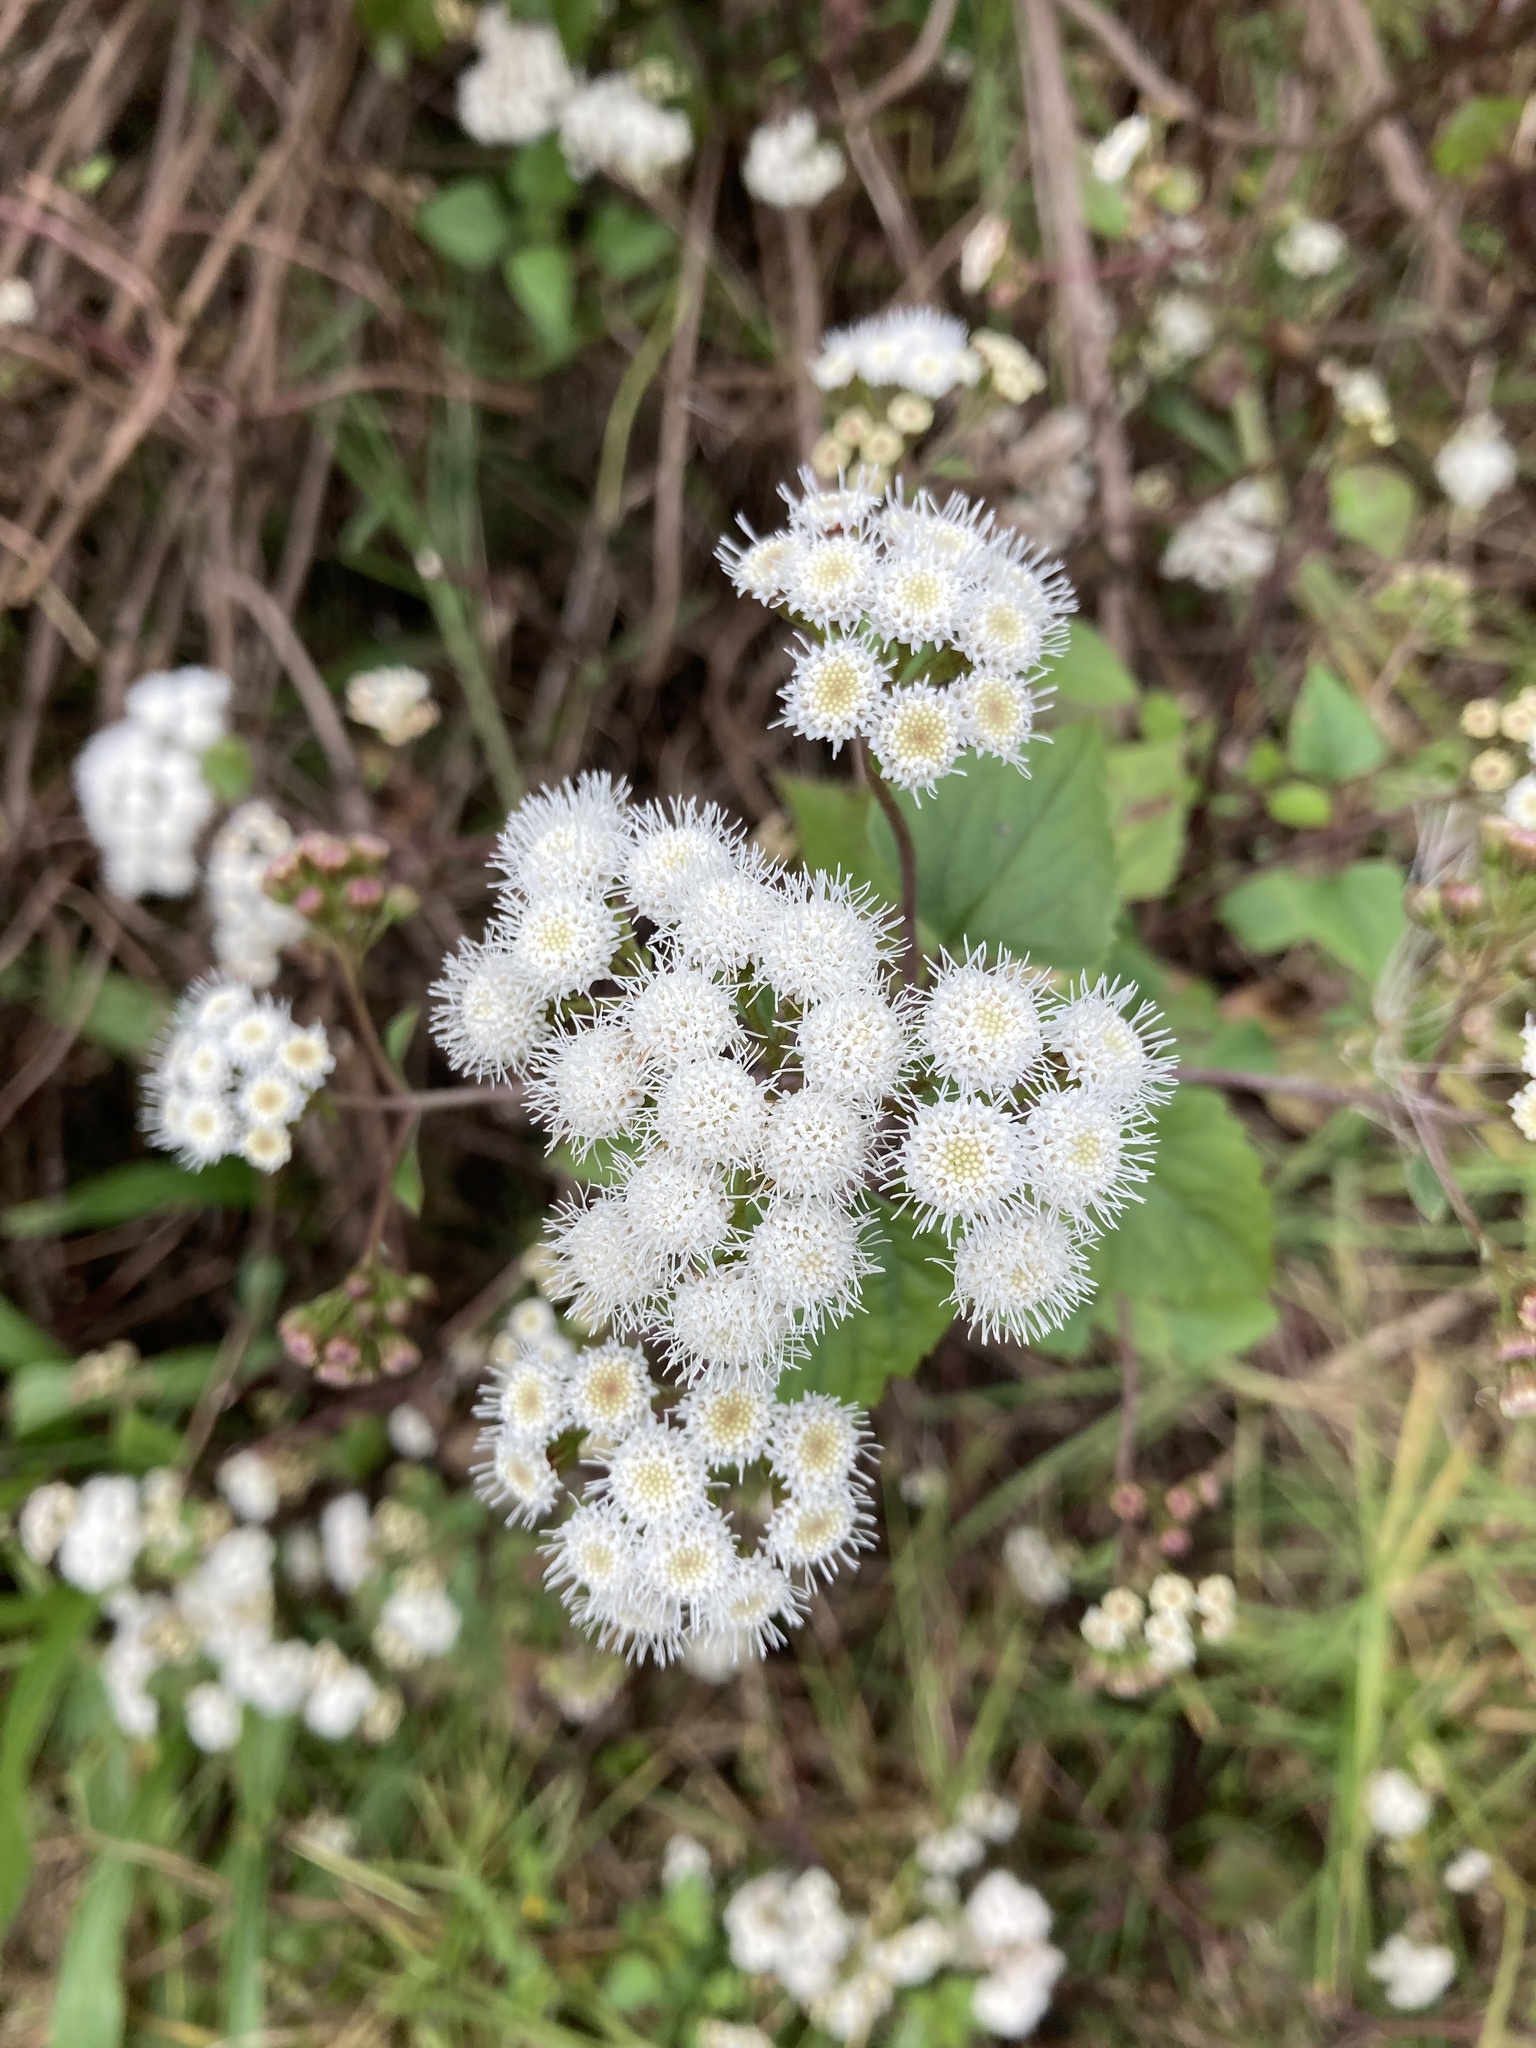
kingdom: Plantae
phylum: Tracheophyta
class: Magnoliopsida
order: Asterales
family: Asteraceae
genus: Ageratina
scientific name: Ageratina adenophora
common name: Sticky snakeroot
